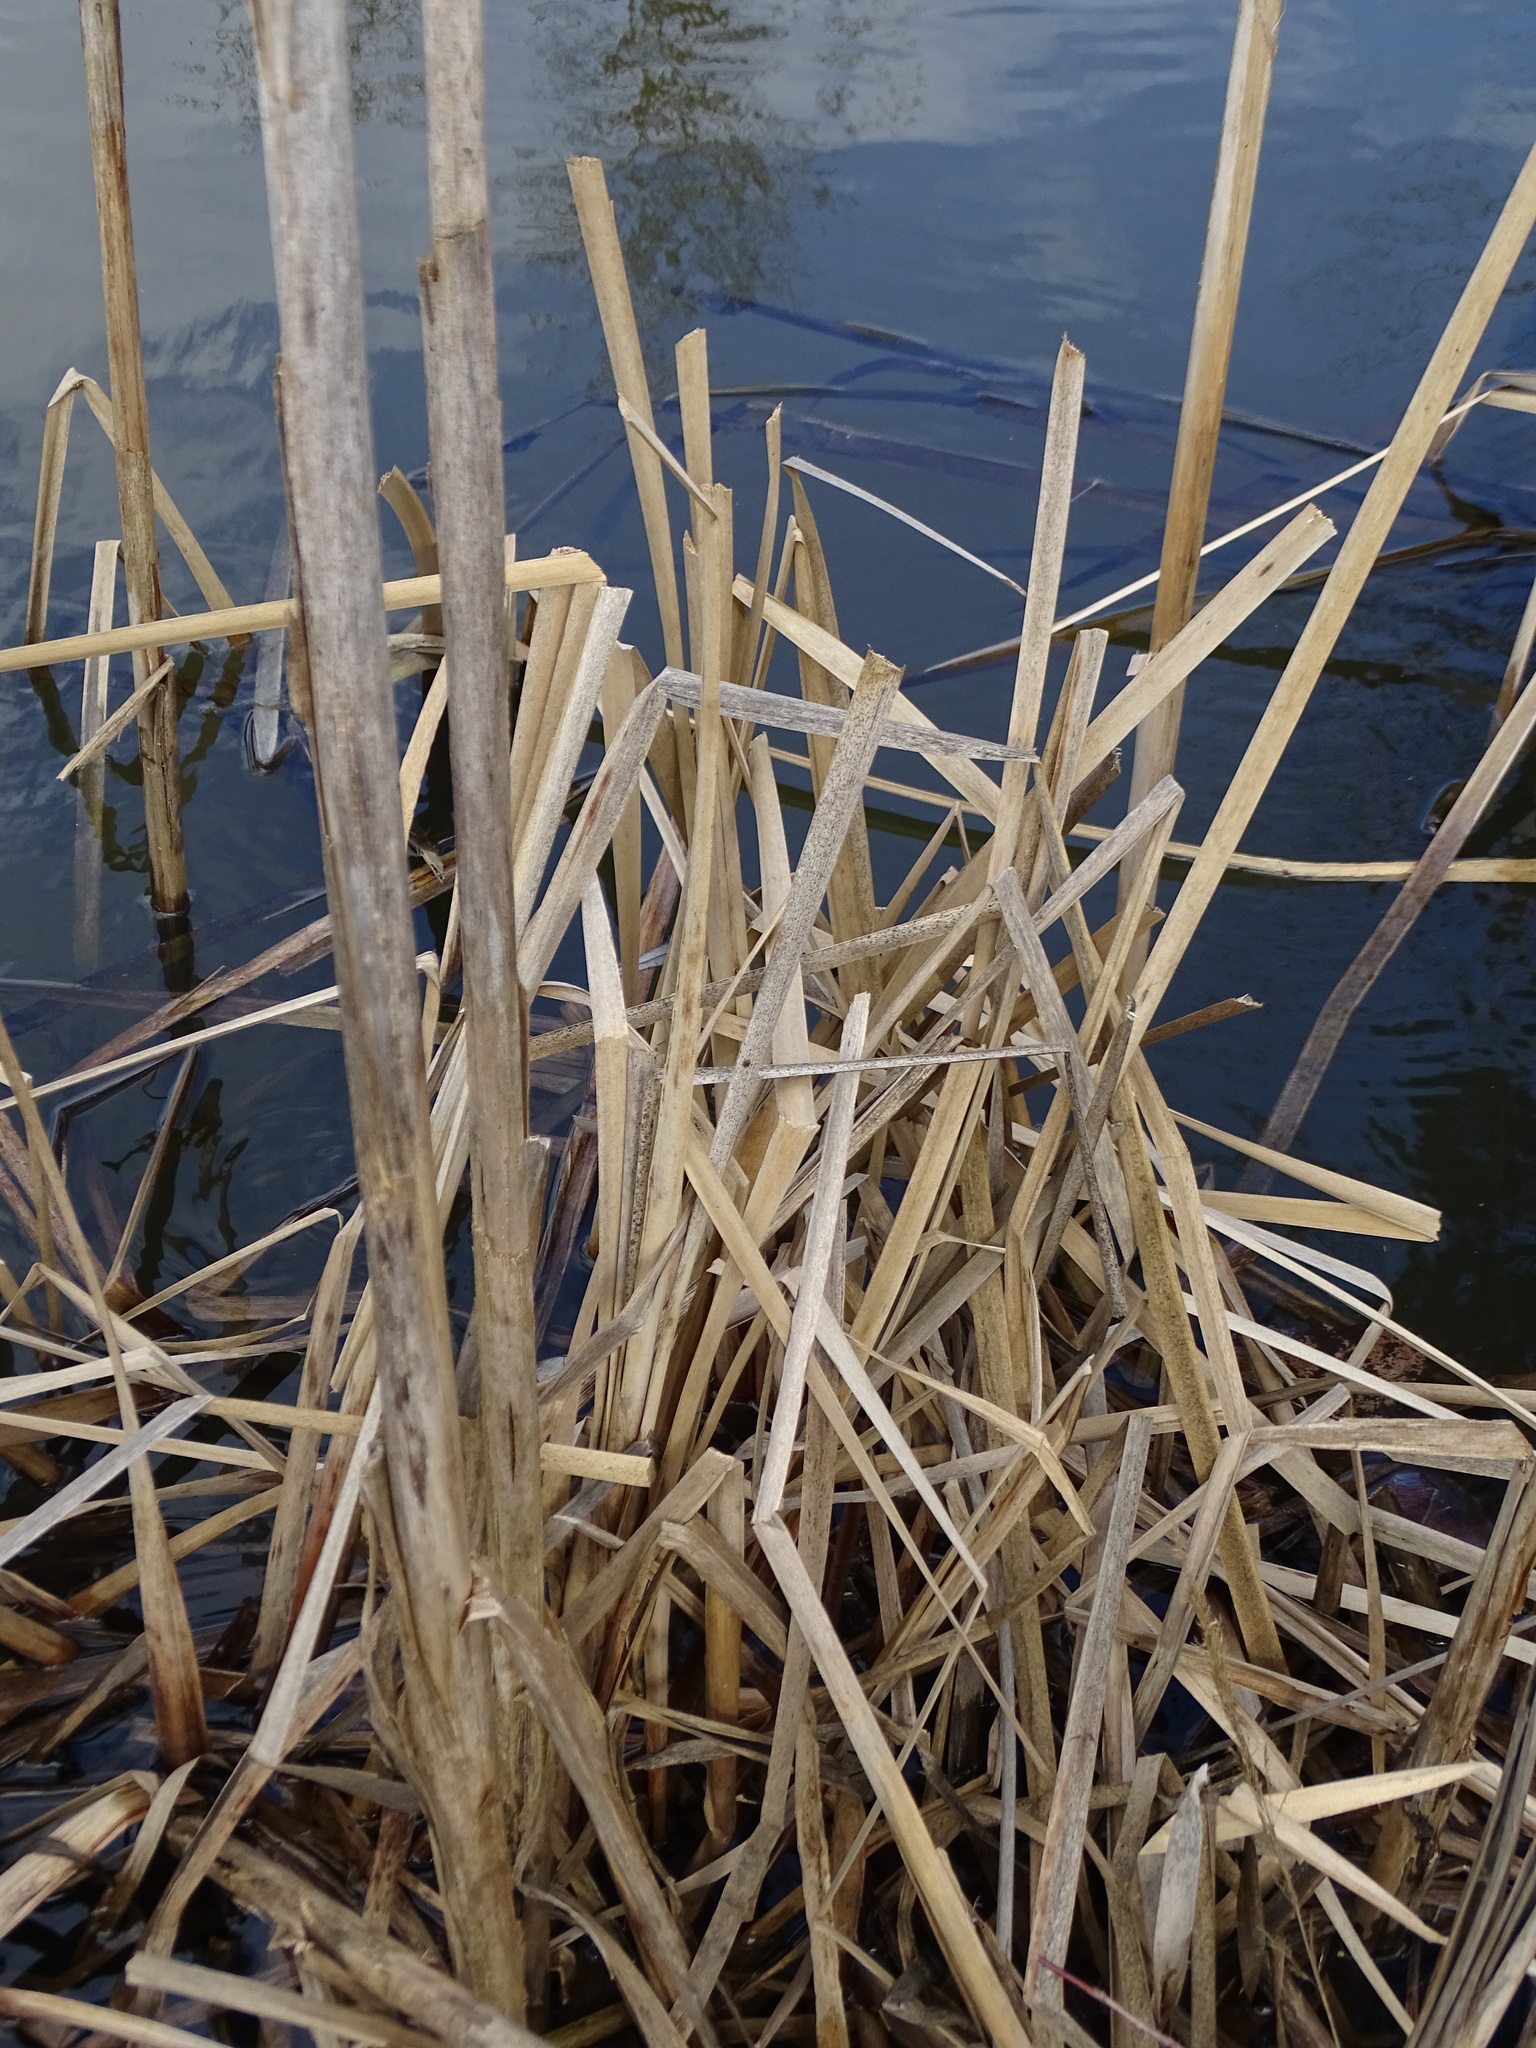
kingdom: Plantae
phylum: Tracheophyta
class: Liliopsida
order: Poales
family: Typhaceae
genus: Typha
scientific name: Typha latifolia
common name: Broadleaf cattail
